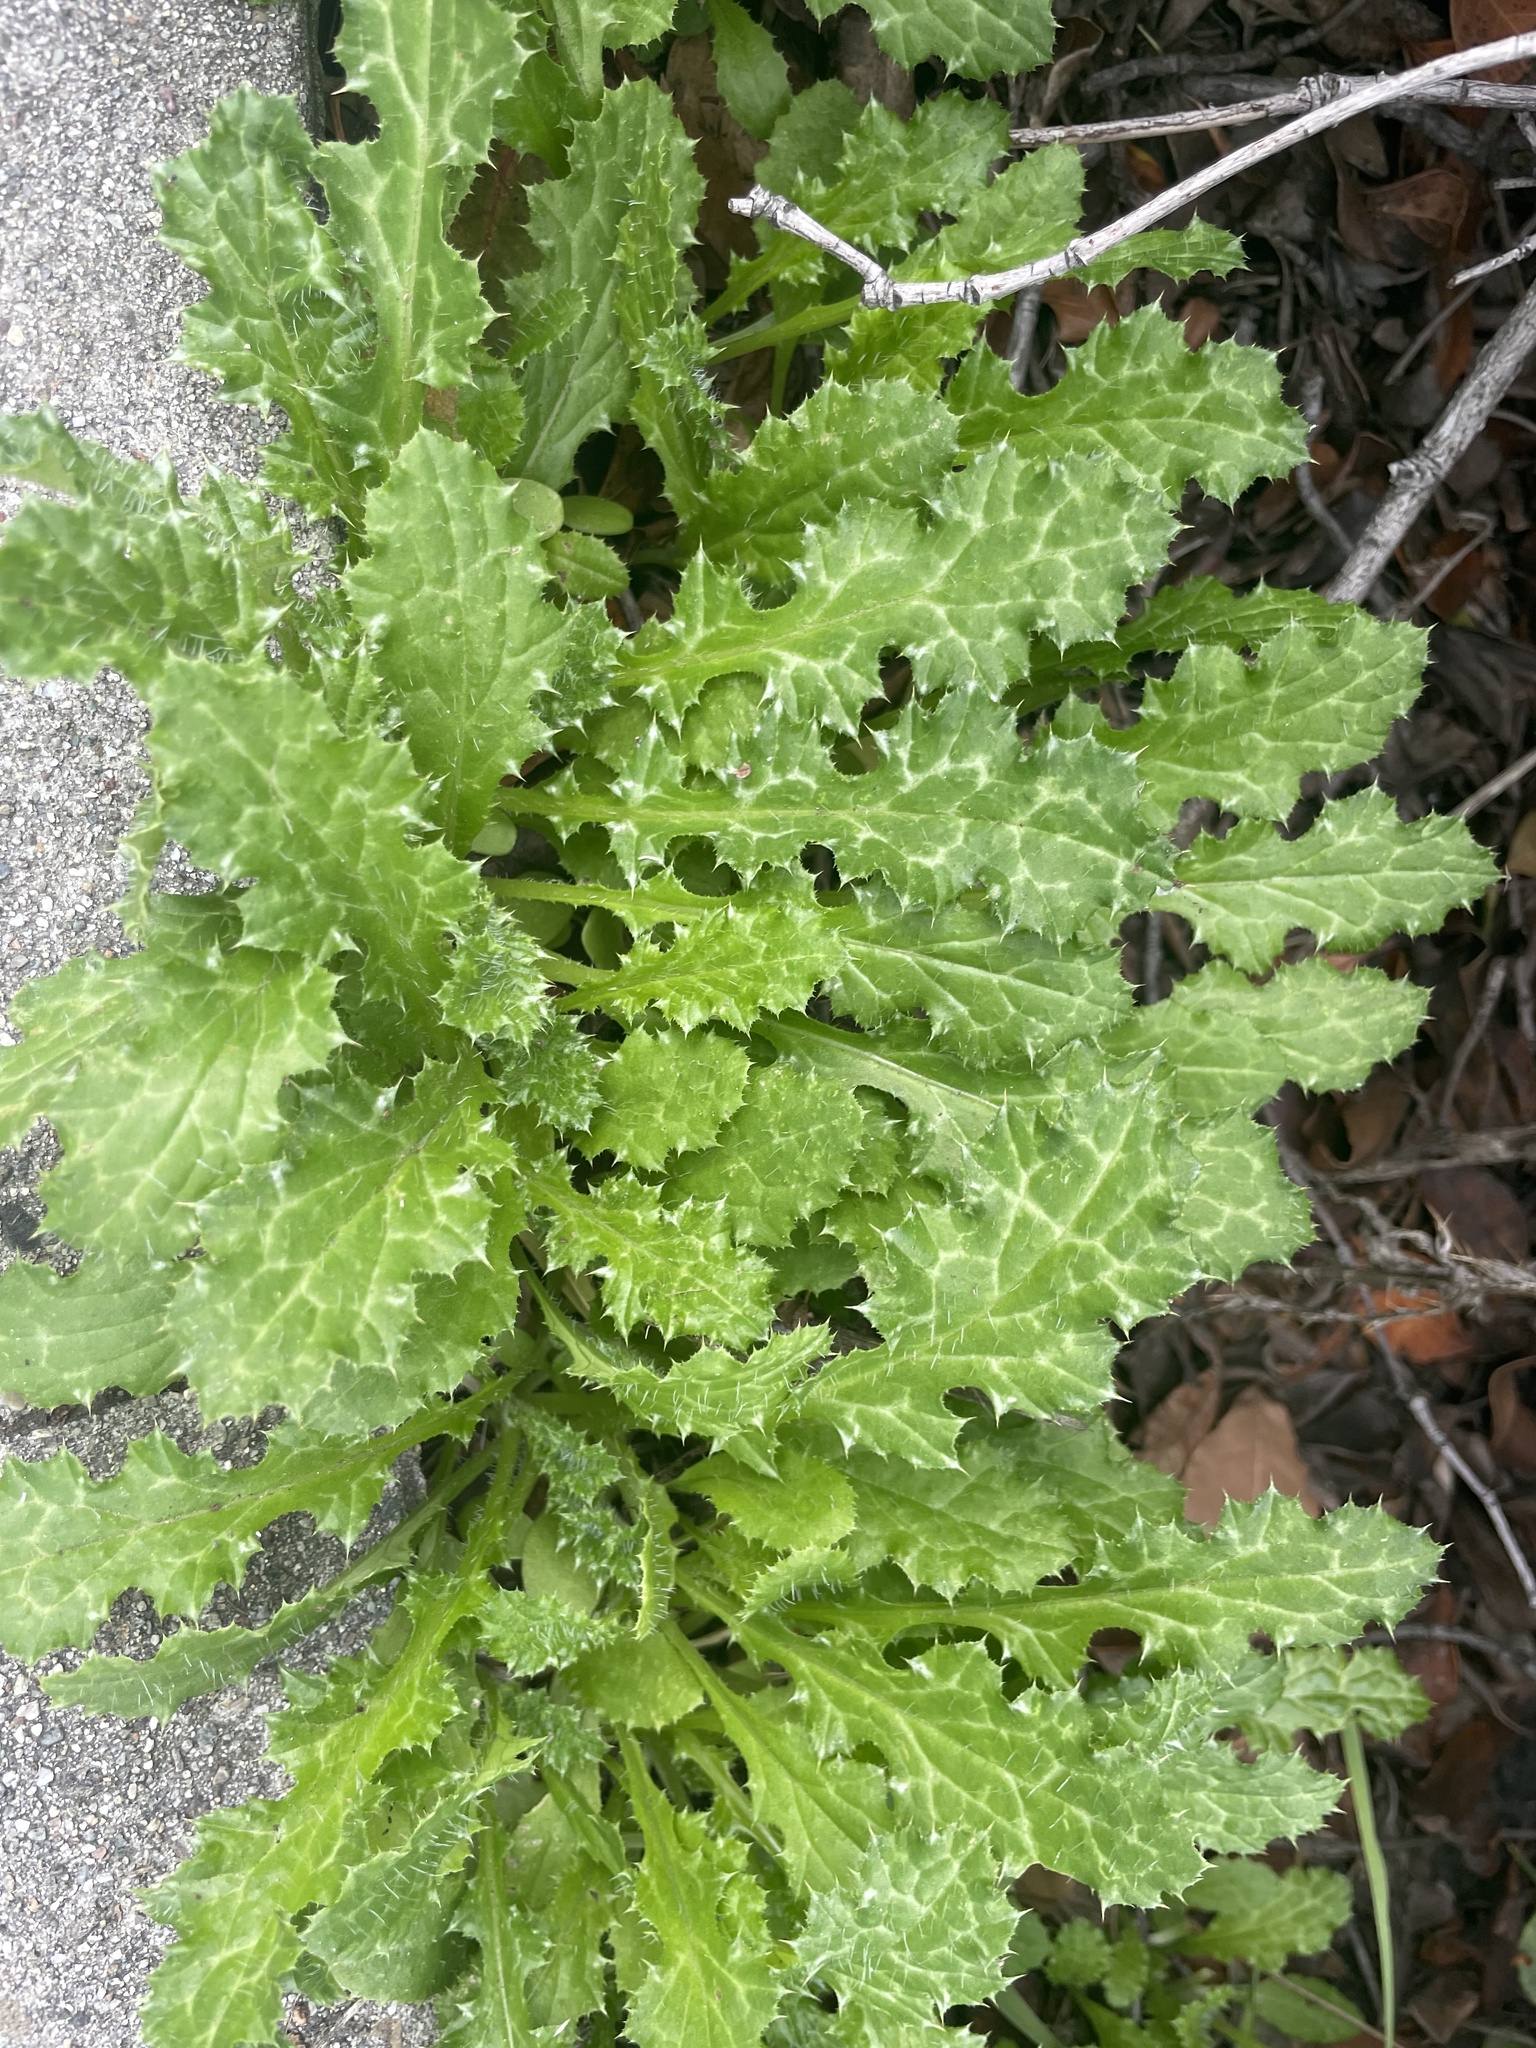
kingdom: Plantae
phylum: Tracheophyta
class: Magnoliopsida
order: Asterales
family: Asteraceae
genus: Carduus
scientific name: Carduus pycnocephalus
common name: Plymouth thistle
